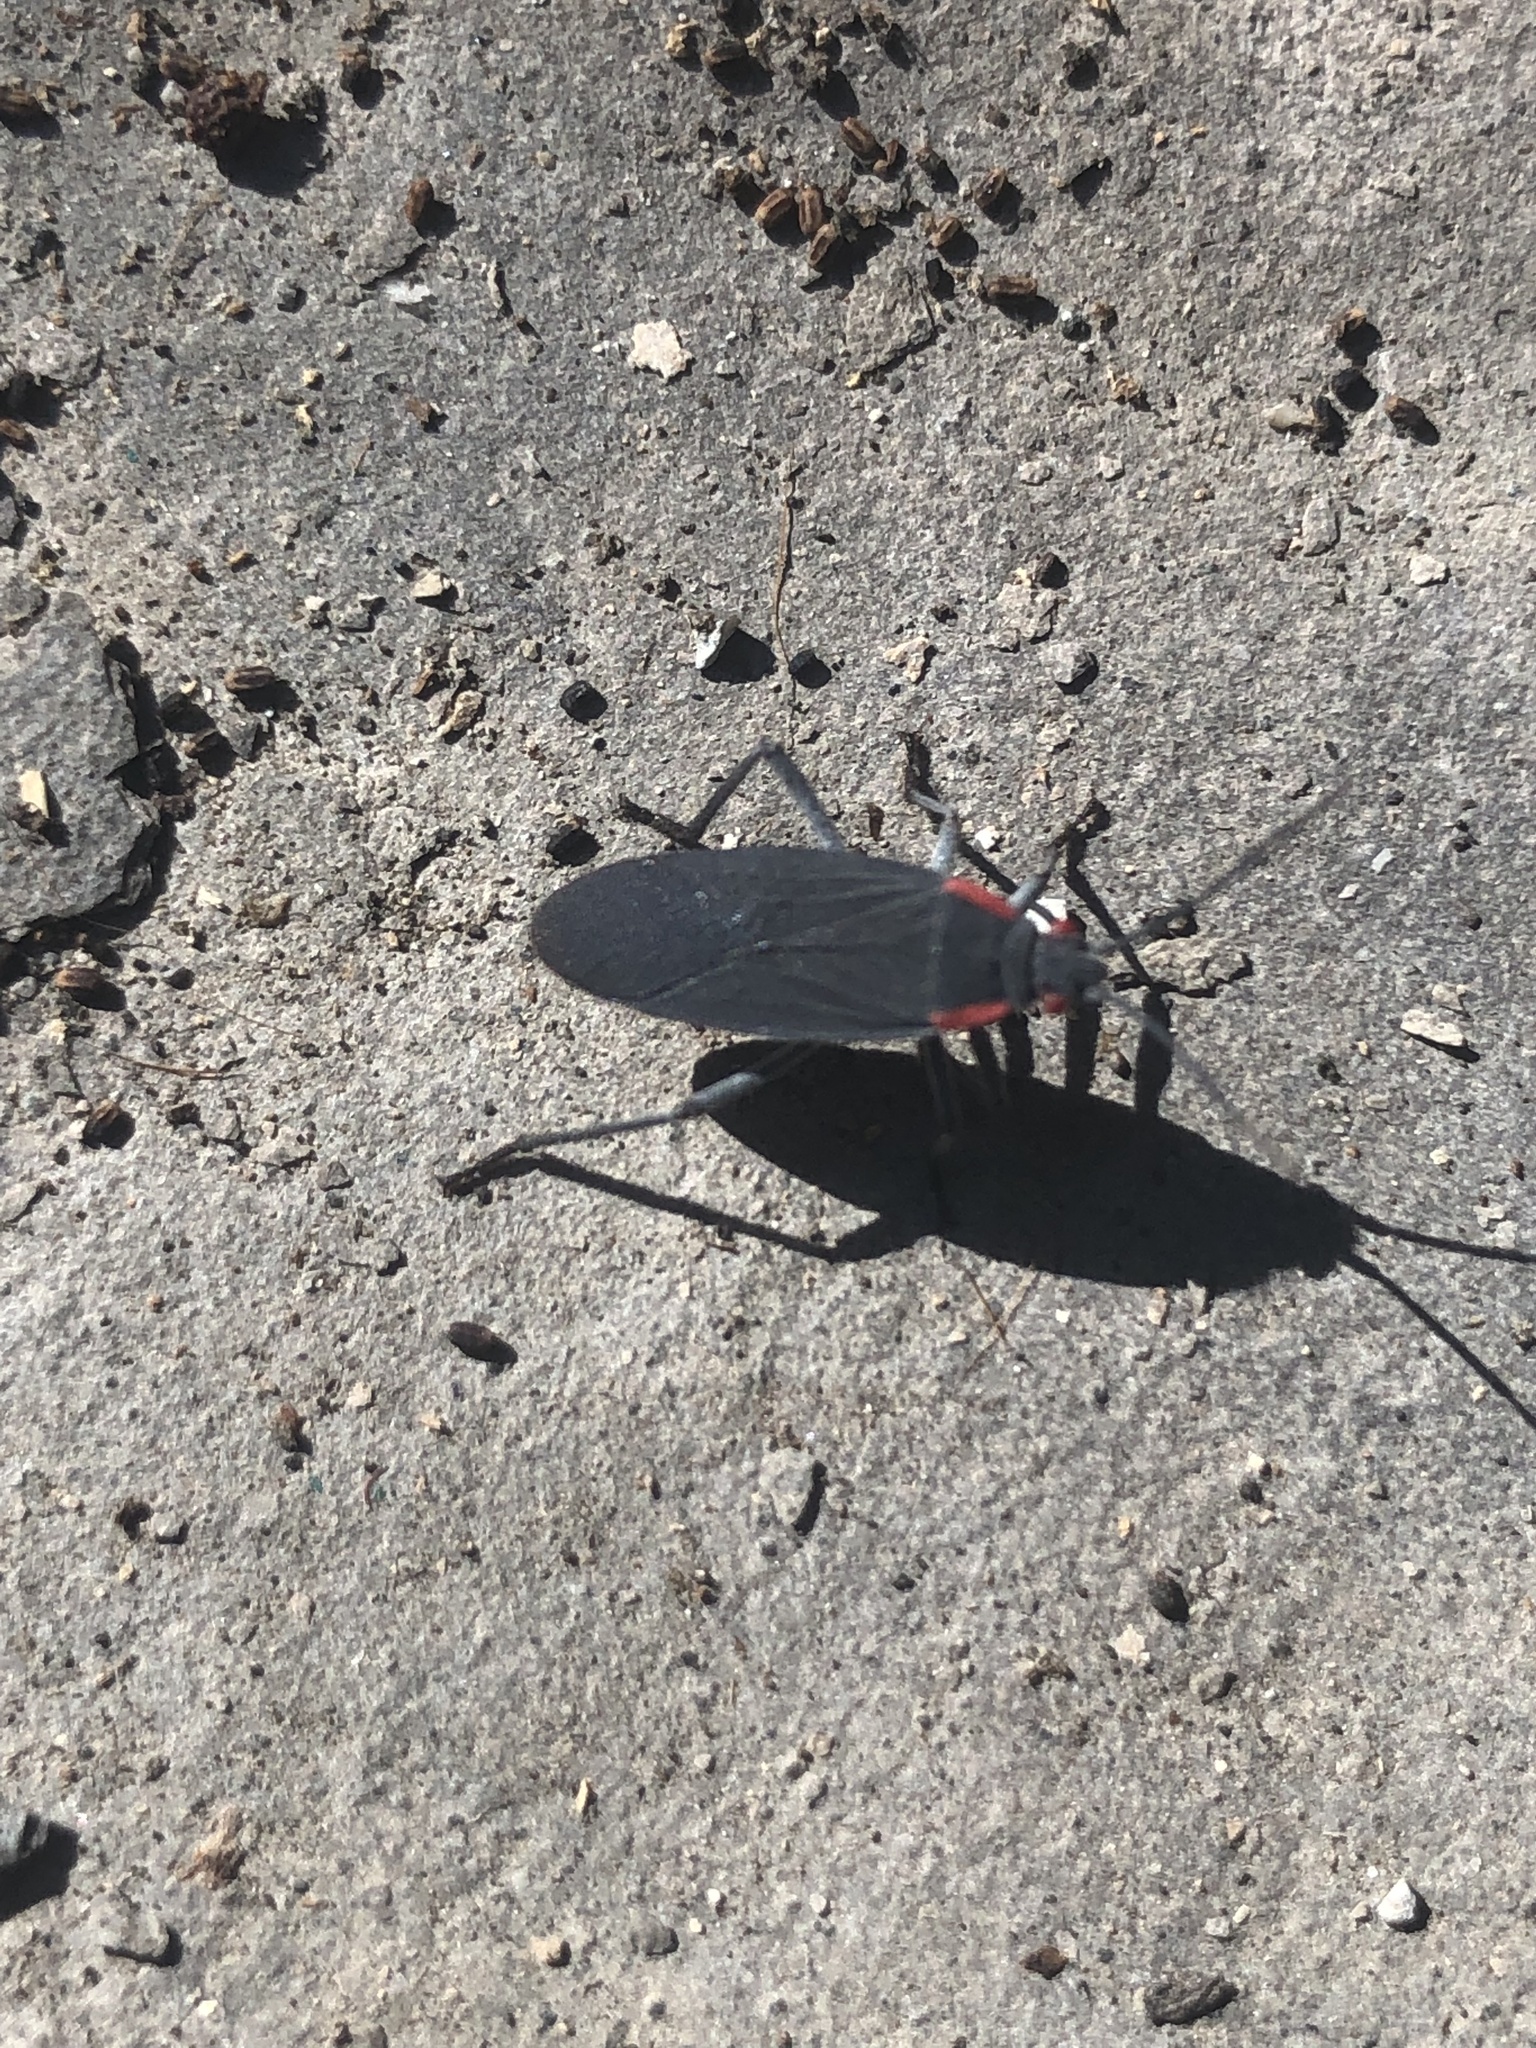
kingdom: Animalia
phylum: Arthropoda
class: Insecta
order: Hemiptera
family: Rhopalidae
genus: Jadera
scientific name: Jadera haematoloma
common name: Red-shouldered bug
